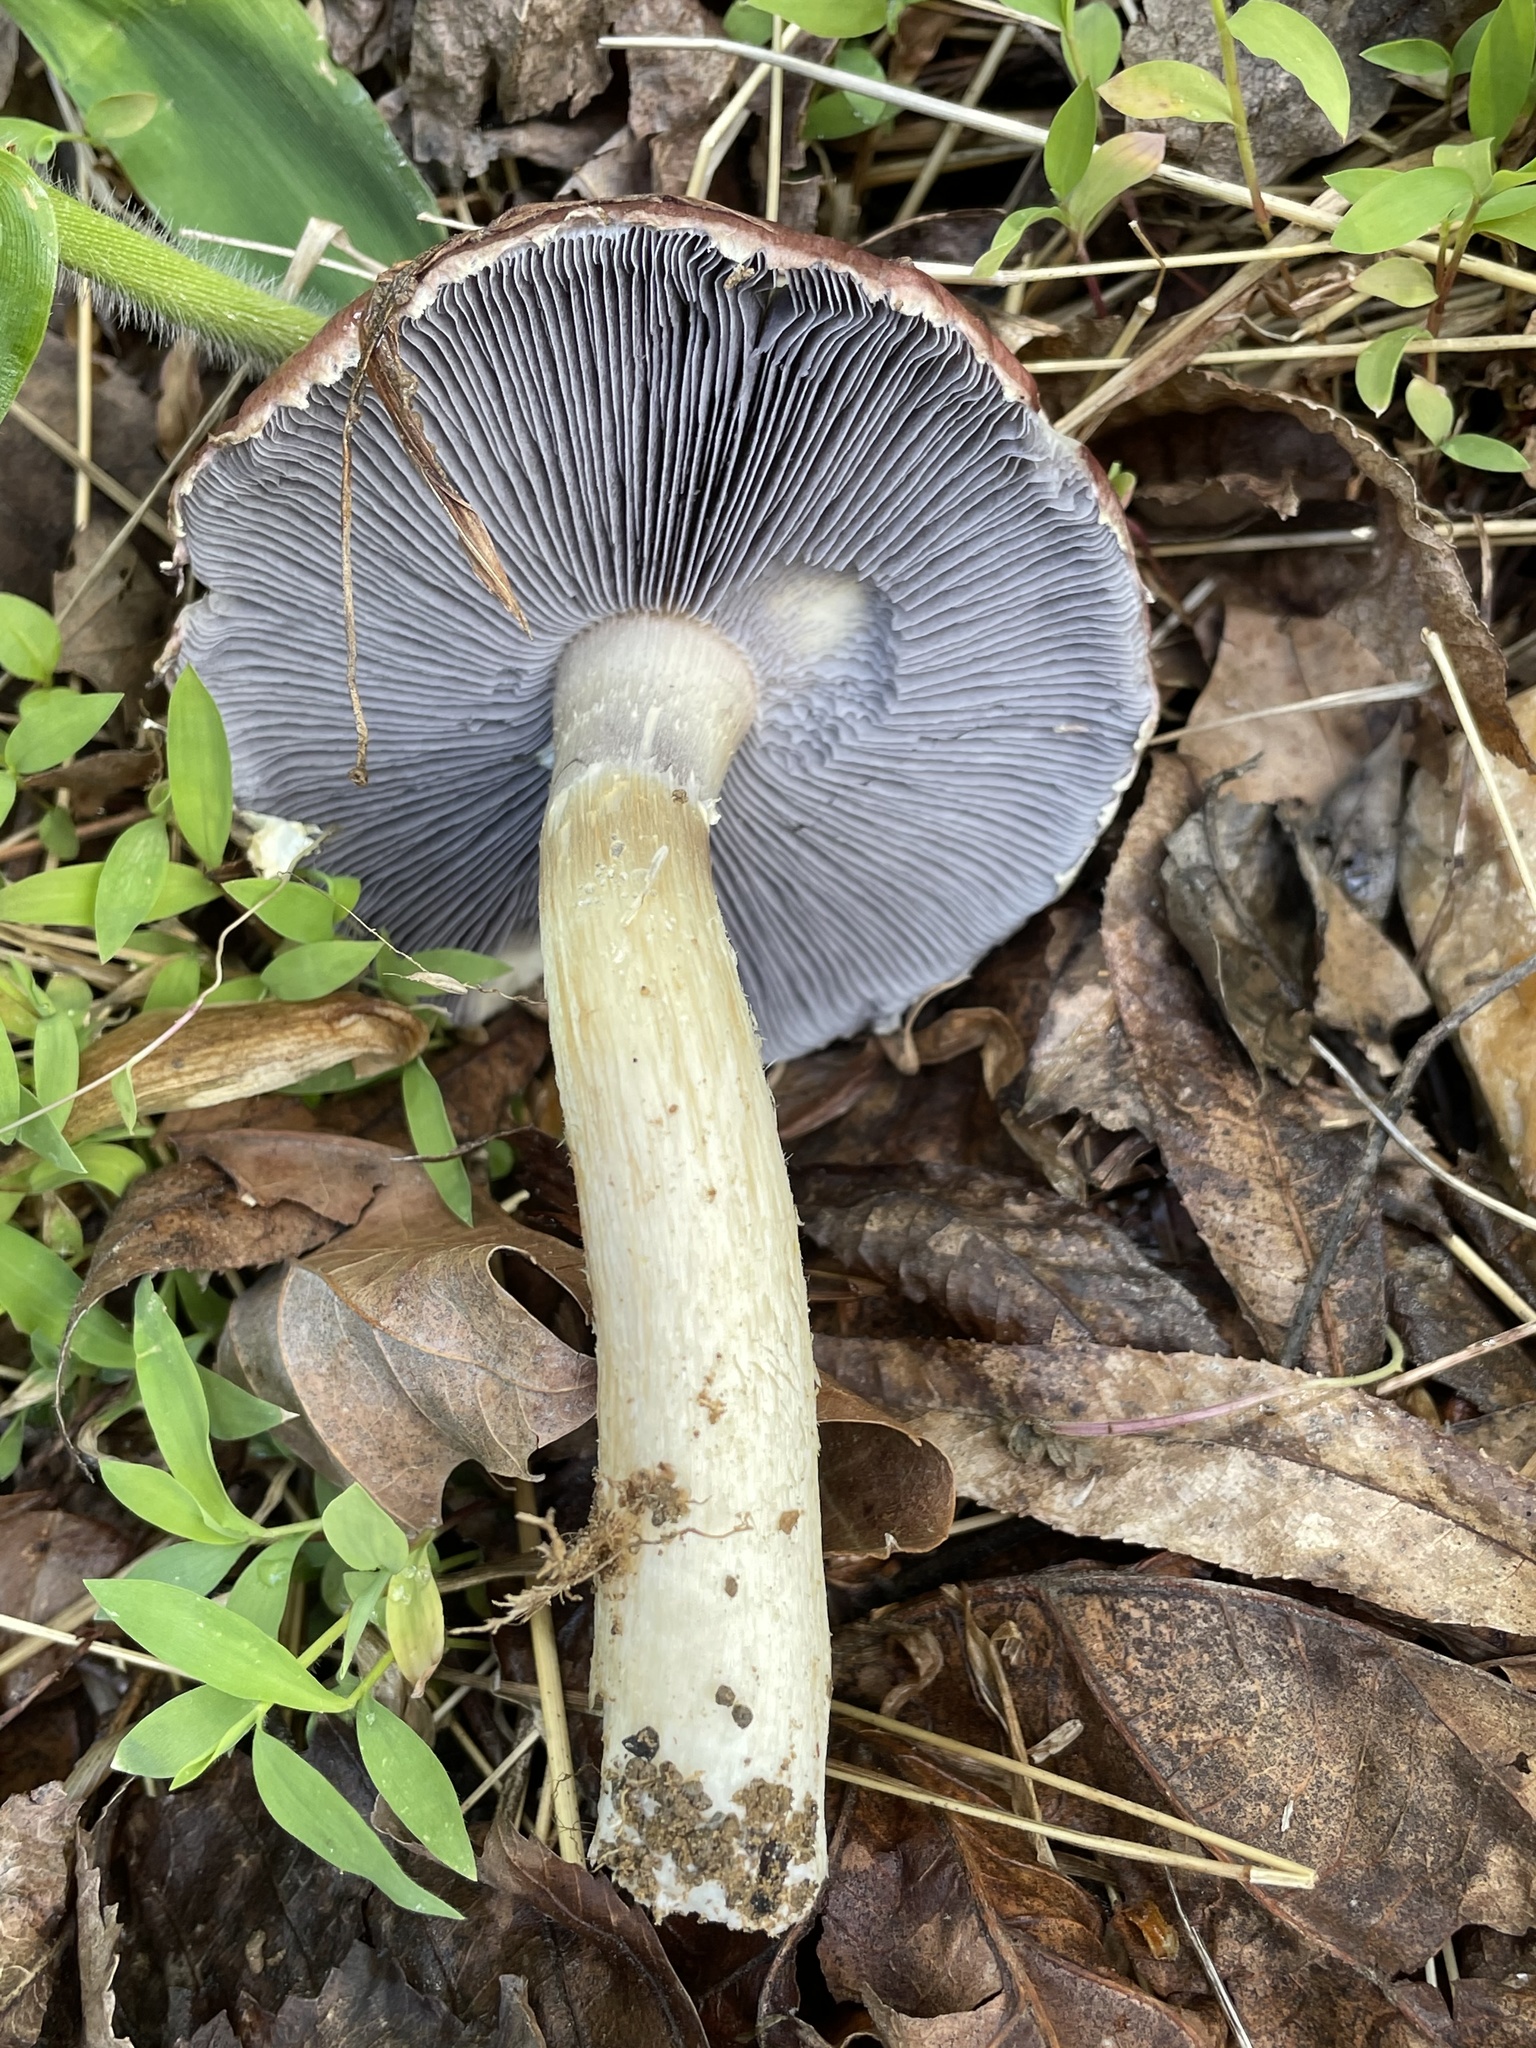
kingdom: Fungi
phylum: Basidiomycota
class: Agaricomycetes
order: Agaricales
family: Strophariaceae
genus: Stropharia
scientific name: Stropharia rugosoannulata
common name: Wine roundhead
